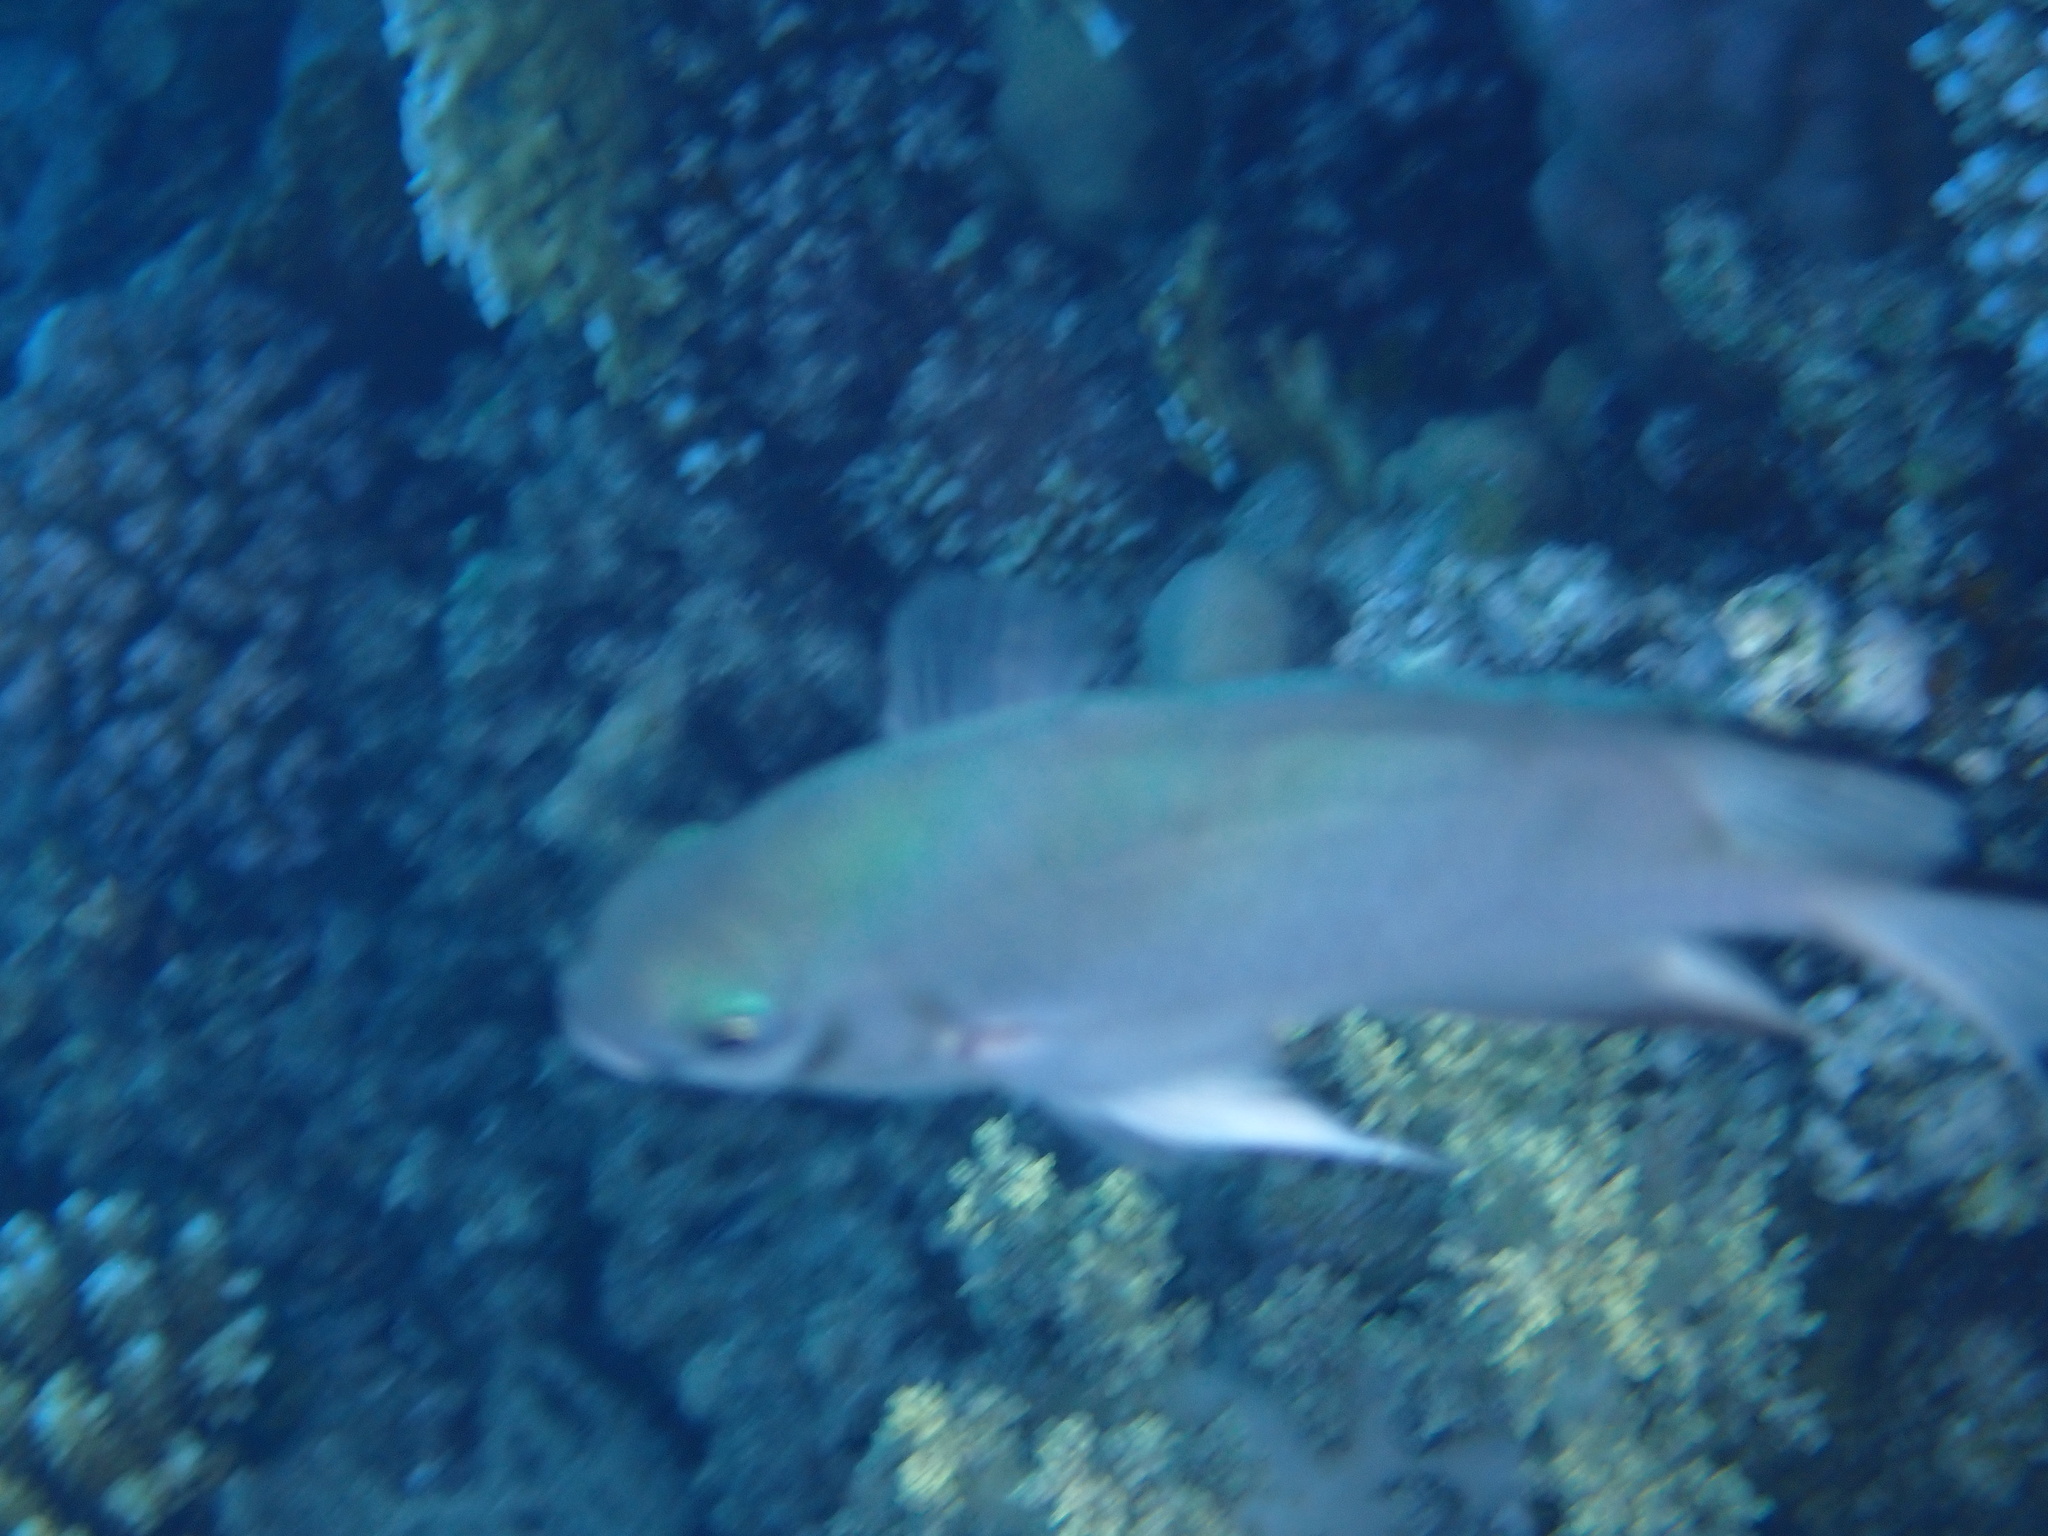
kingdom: Animalia
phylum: Chordata
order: Perciformes
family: Pomacentridae
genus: Amblyglyphidodon
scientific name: Amblyglyphidodon indicus
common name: Maldives damselfish
